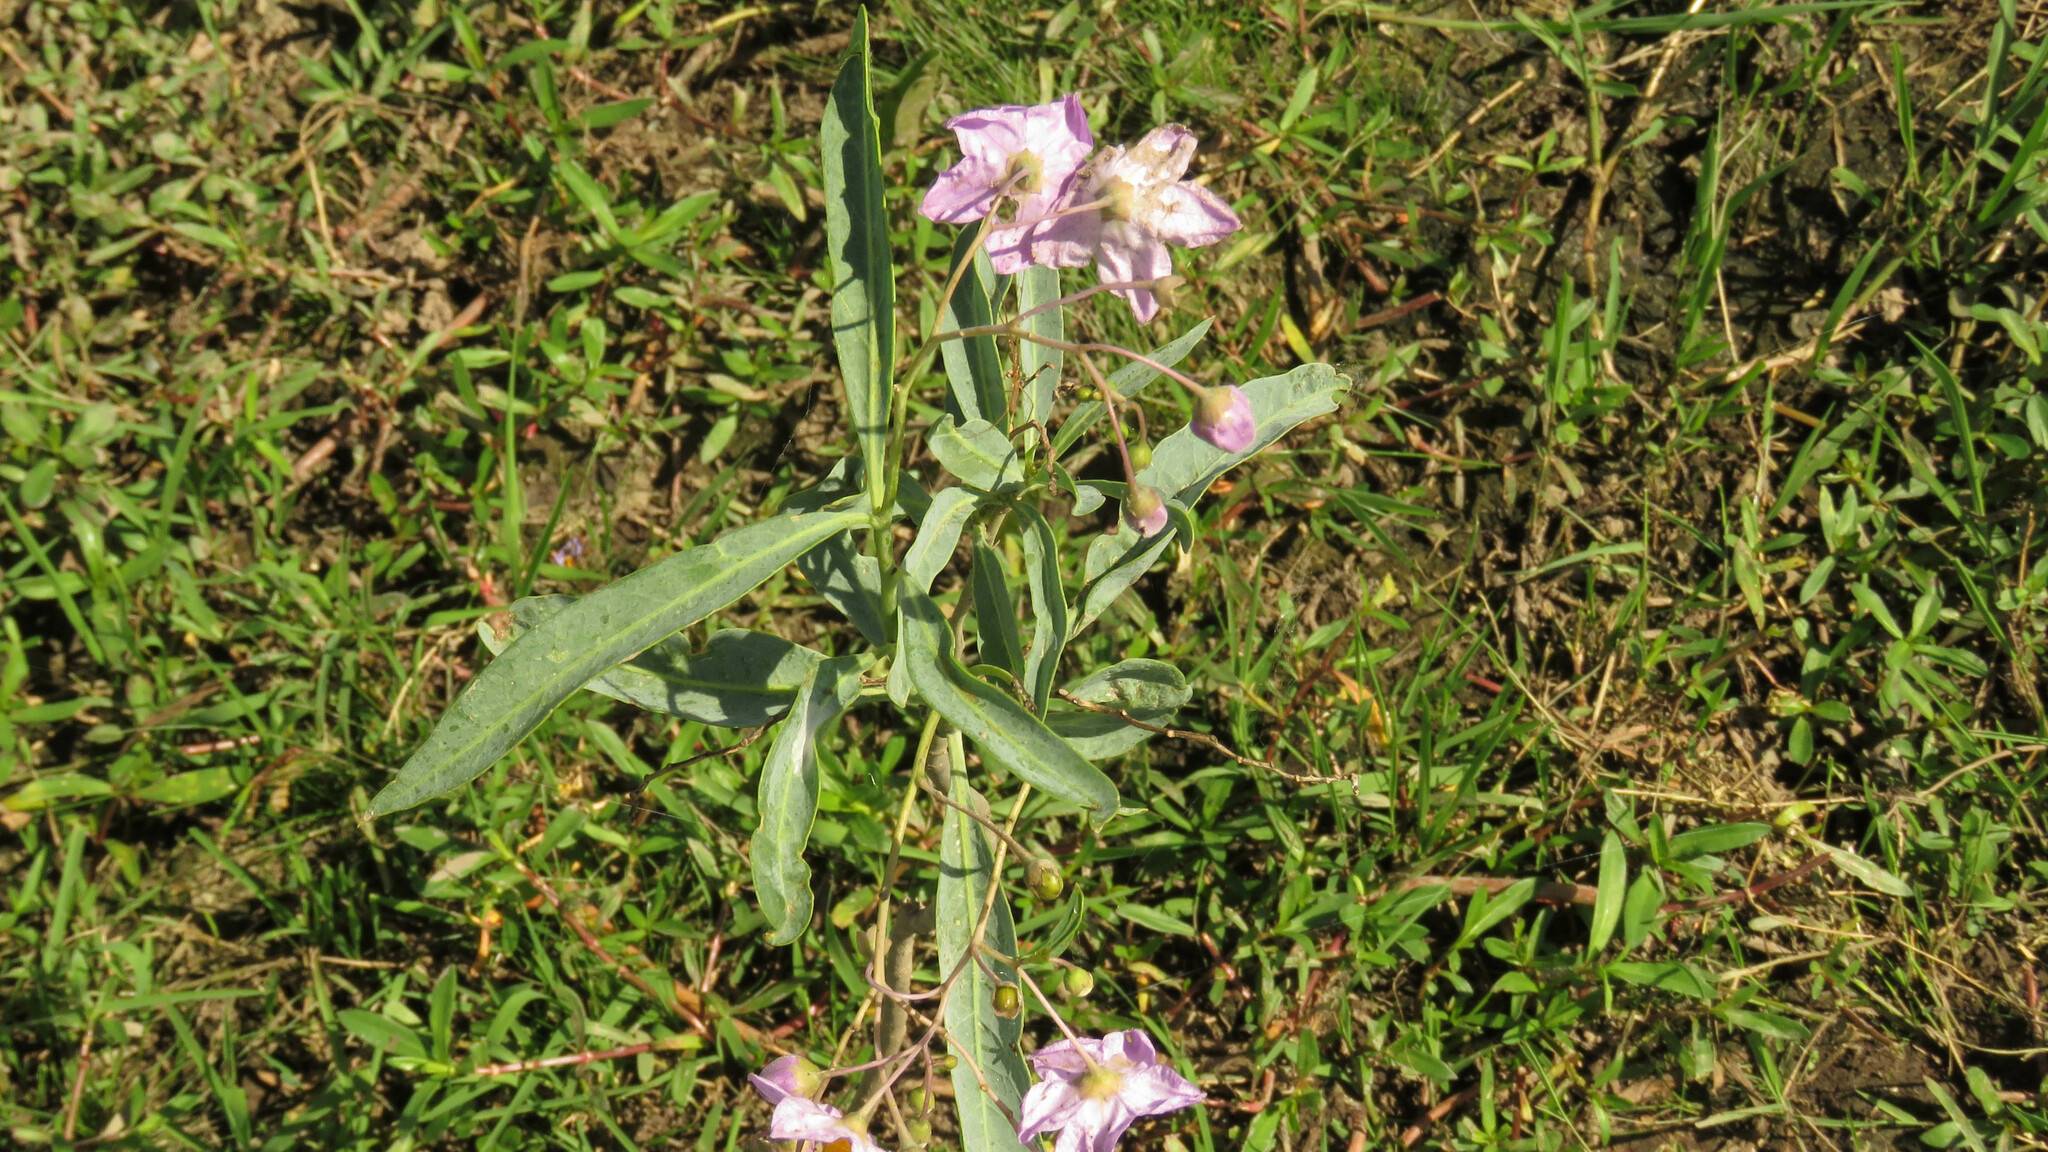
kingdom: Plantae
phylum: Tracheophyta
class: Magnoliopsida
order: Solanales
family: Solanaceae
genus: Solanum
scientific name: Solanum glaucophyllum
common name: Waxyleaf nightshade
